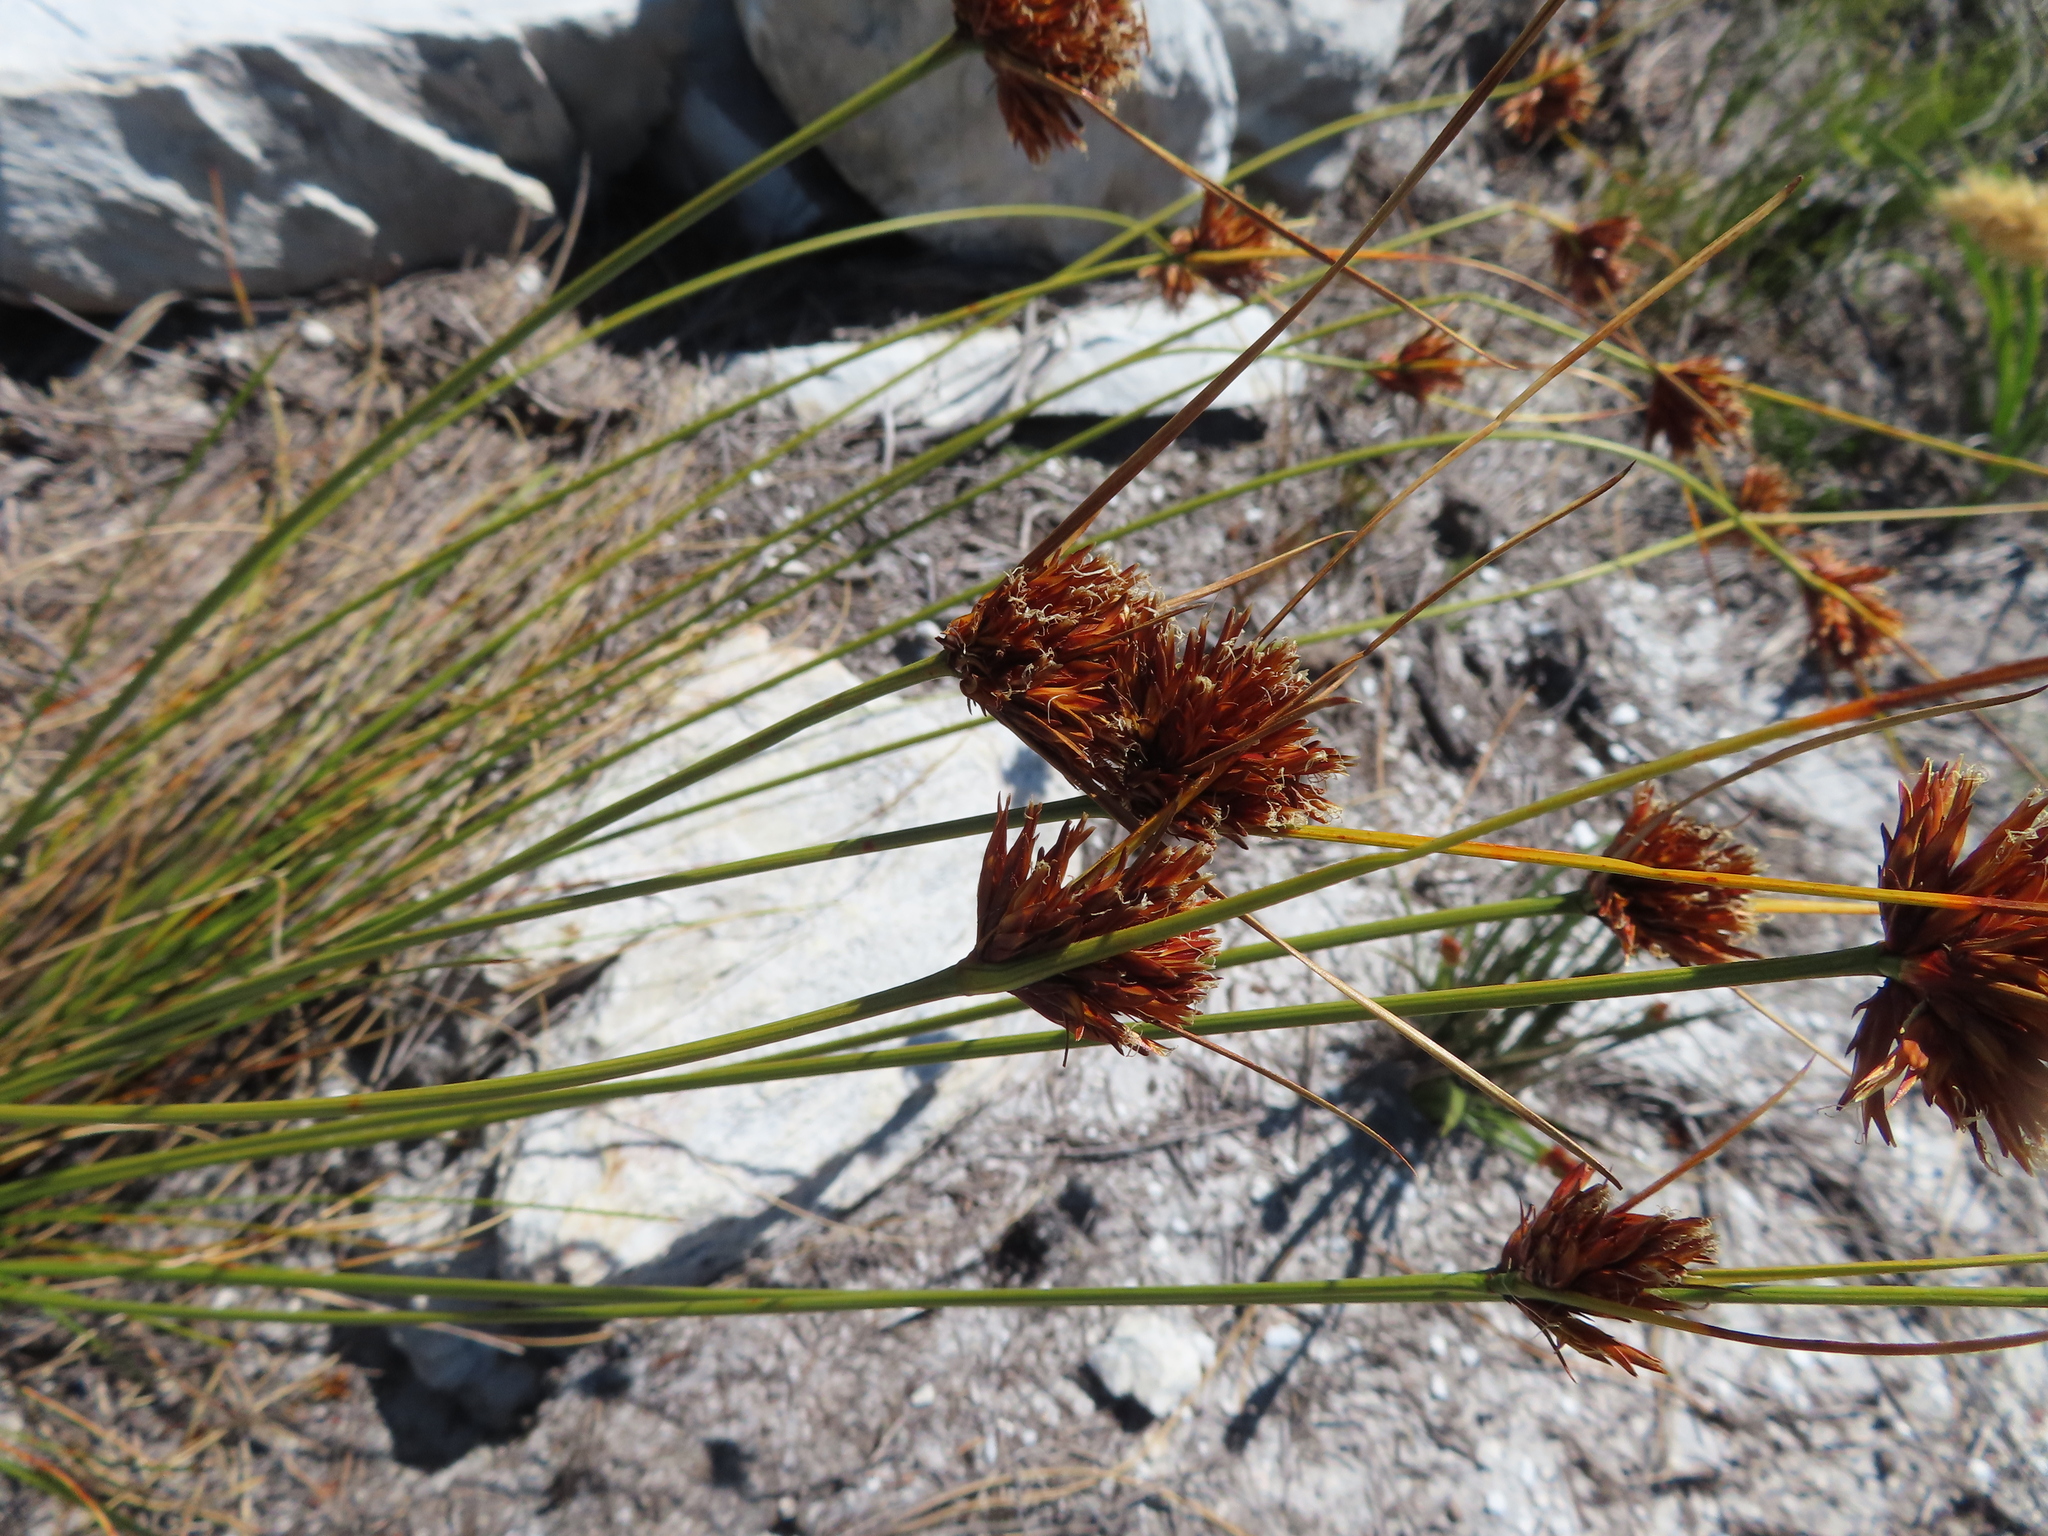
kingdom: Plantae
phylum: Tracheophyta
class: Liliopsida
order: Poales
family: Cyperaceae
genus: Schoenus
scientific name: Schoenus compar
